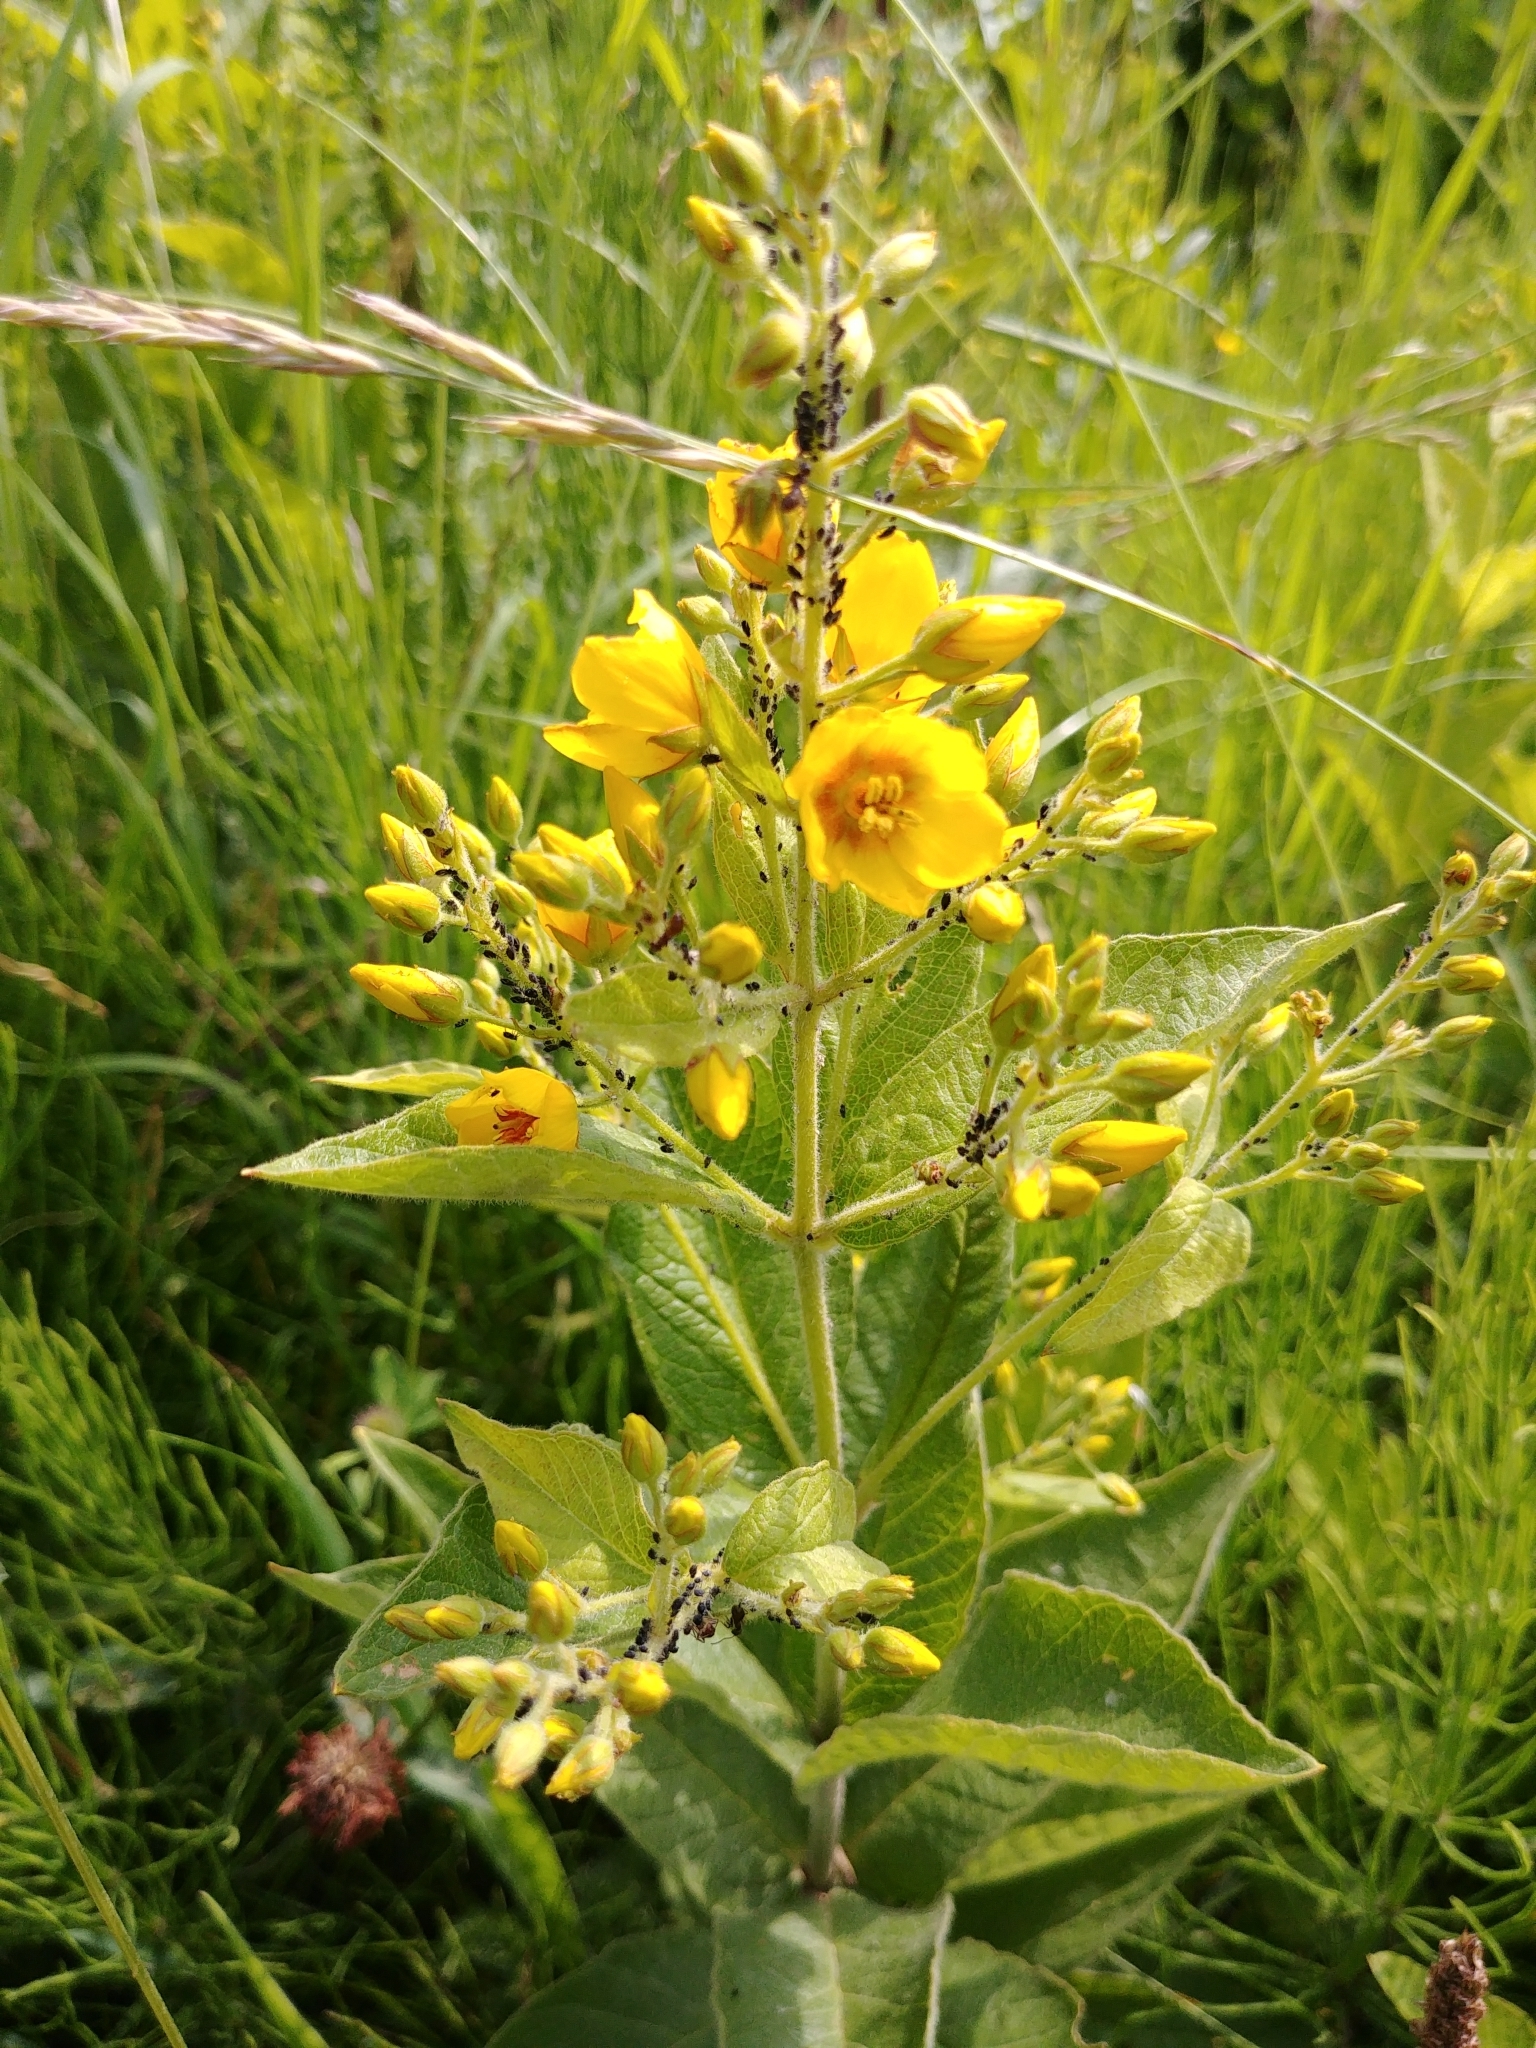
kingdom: Plantae
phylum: Tracheophyta
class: Magnoliopsida
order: Ericales
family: Primulaceae
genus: Lysimachia
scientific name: Lysimachia vulgaris
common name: Yellow loosestrife
